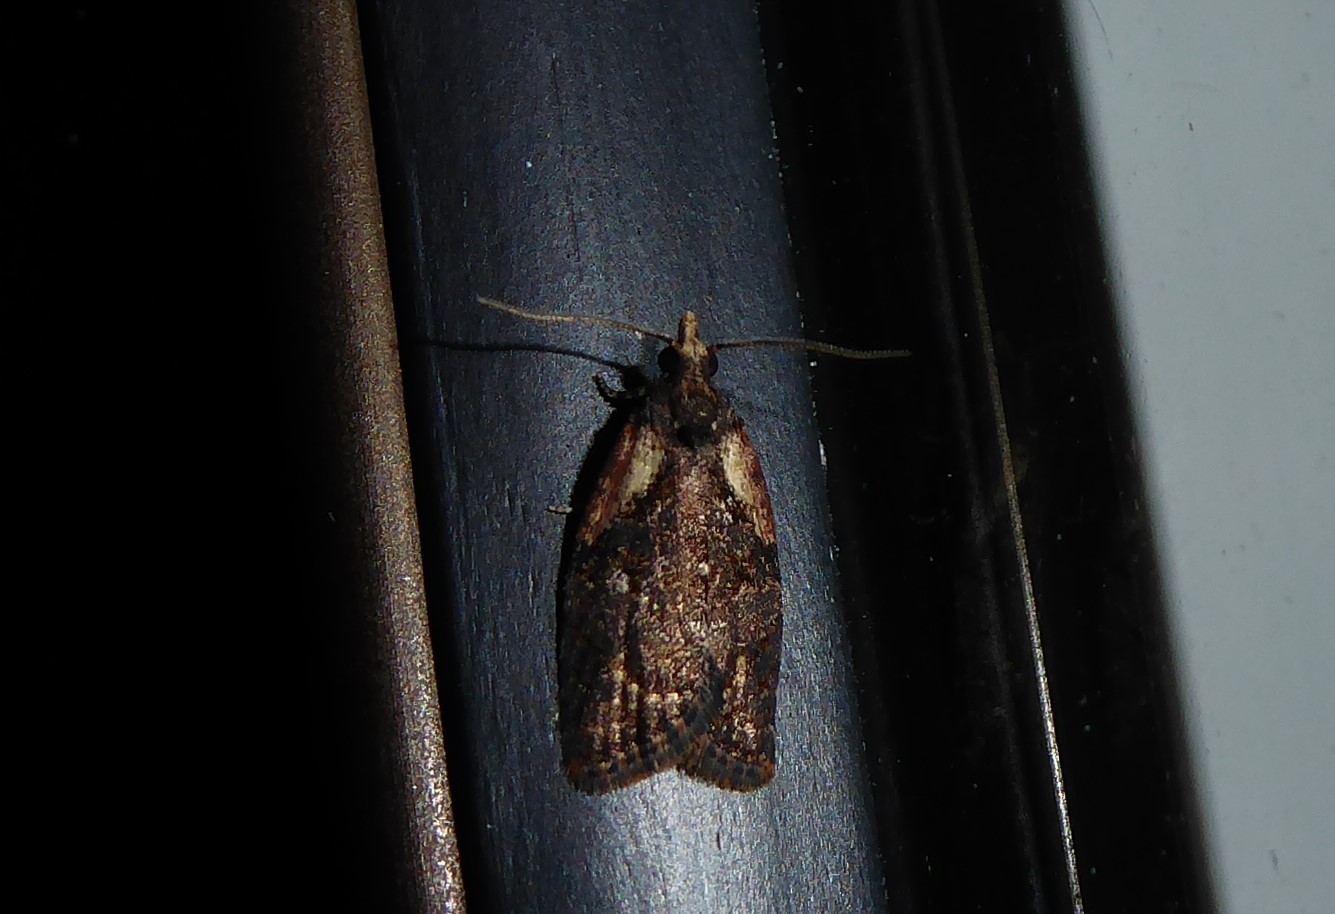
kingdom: Animalia
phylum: Arthropoda
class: Insecta
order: Lepidoptera
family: Tortricidae
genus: Capua
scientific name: Capua intractana
